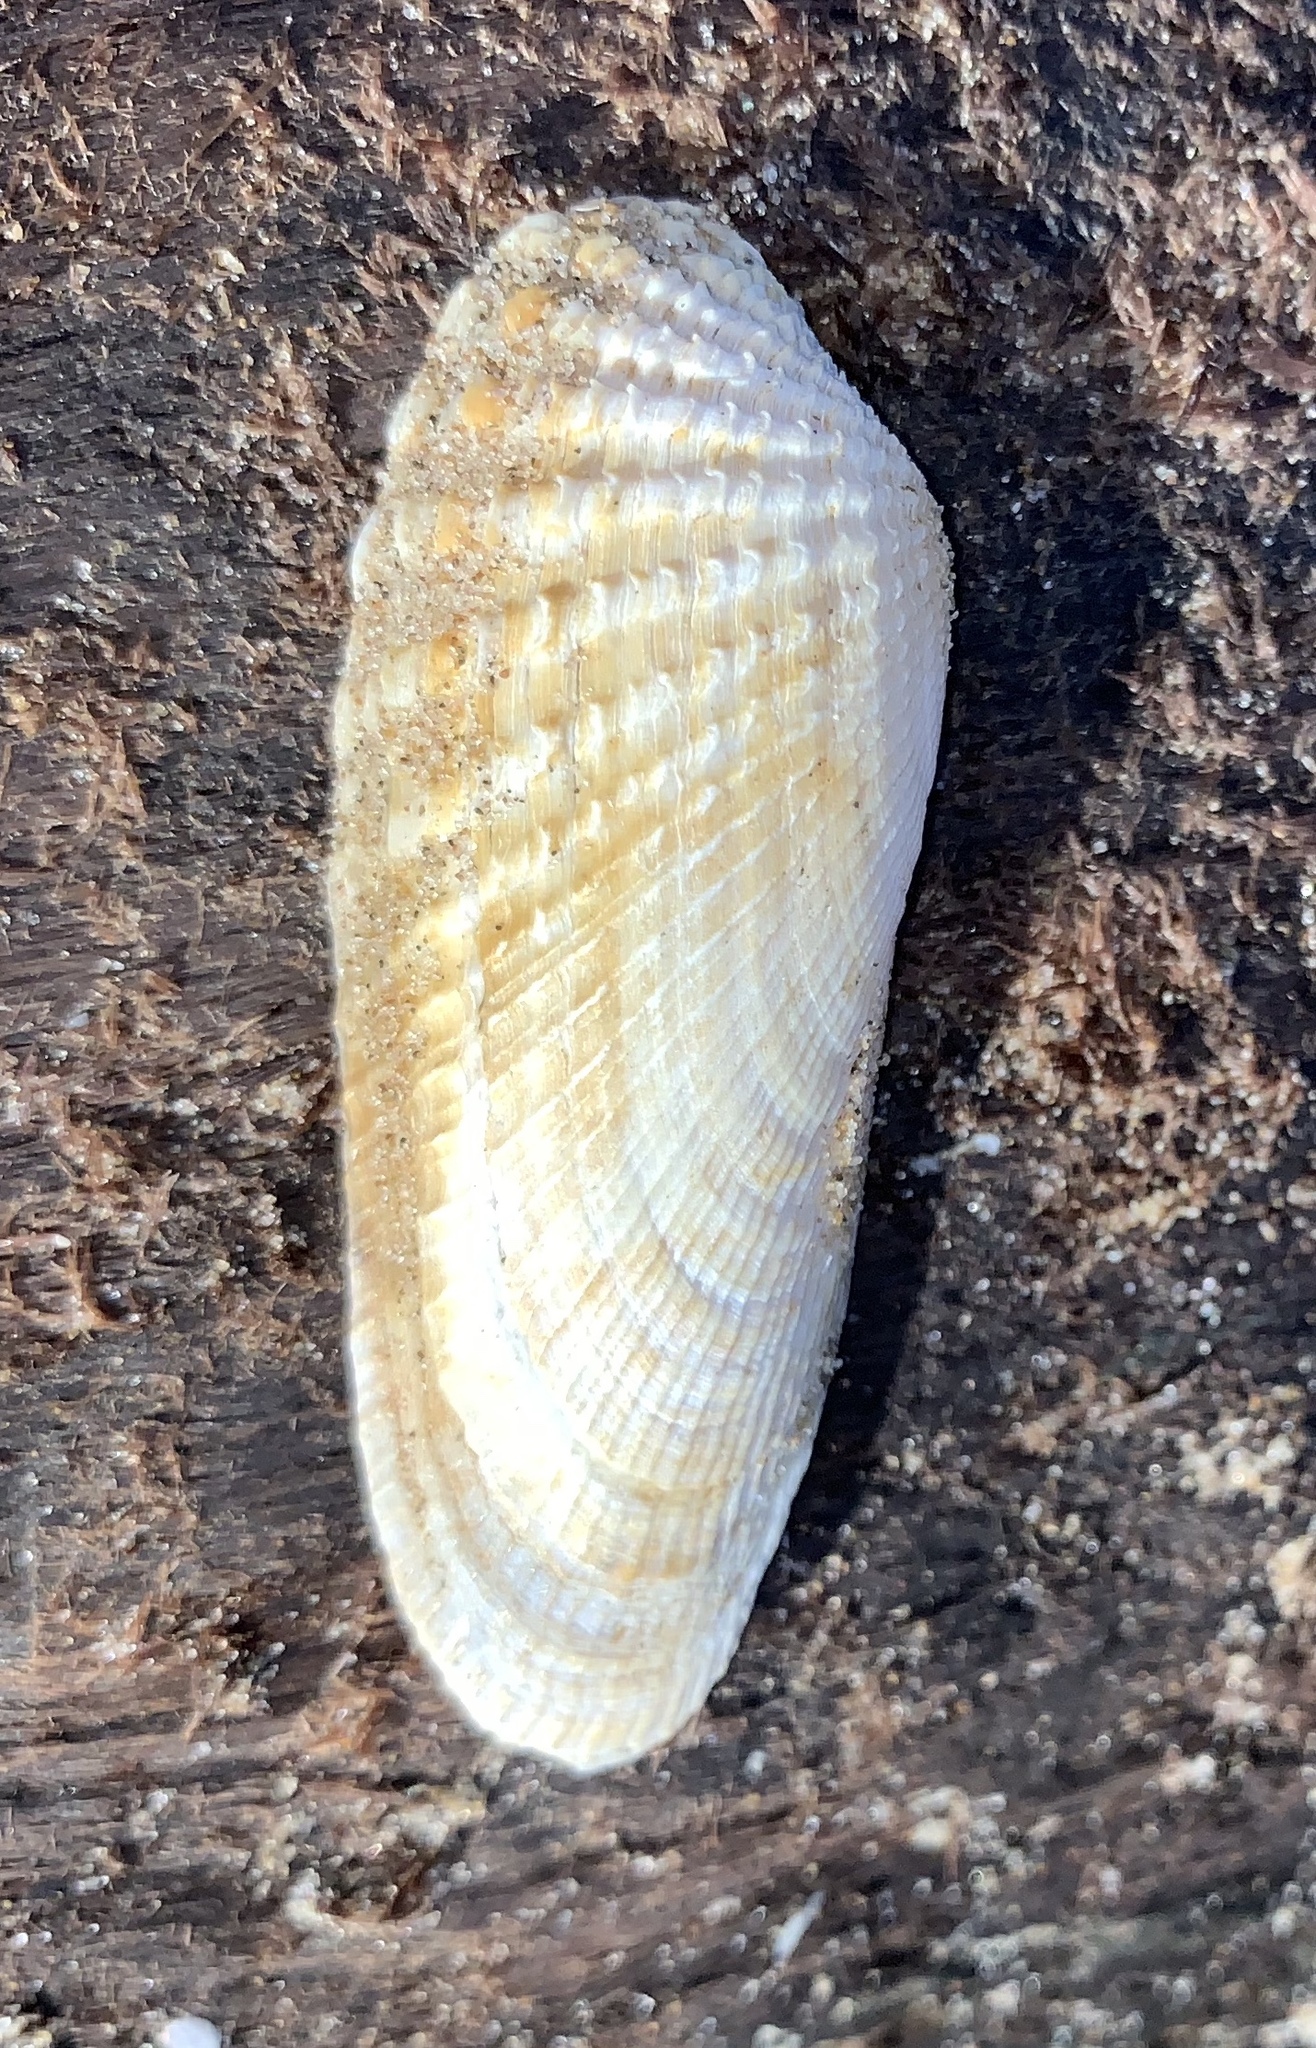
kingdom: Animalia
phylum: Mollusca
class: Bivalvia
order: Venerida
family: Veneridae
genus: Petricolaria
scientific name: Petricolaria pholadiformis
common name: American piddock
